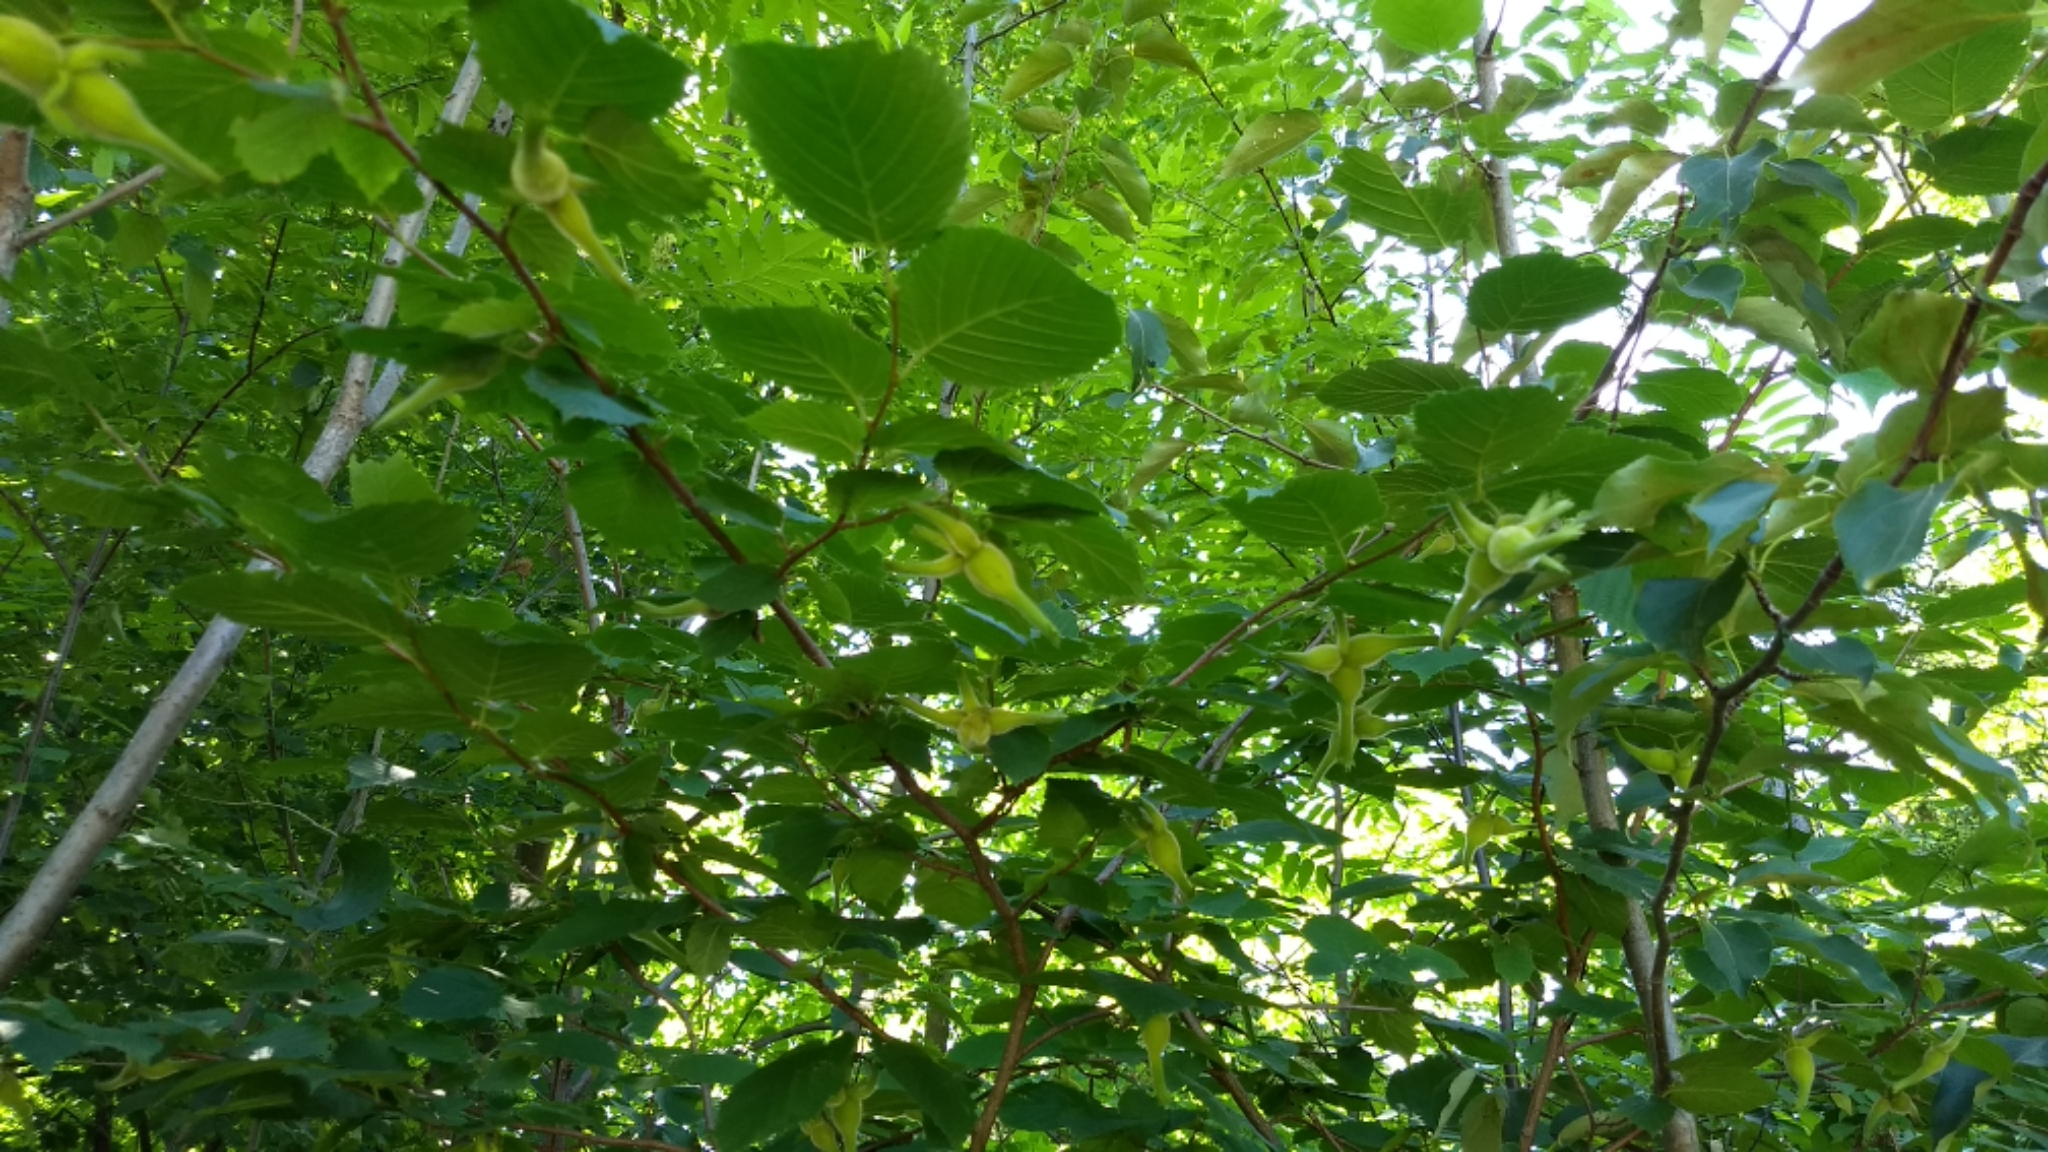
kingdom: Plantae
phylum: Tracheophyta
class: Magnoliopsida
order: Fagales
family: Betulaceae
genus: Corylus
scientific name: Corylus cornuta
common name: Beaked hazel
